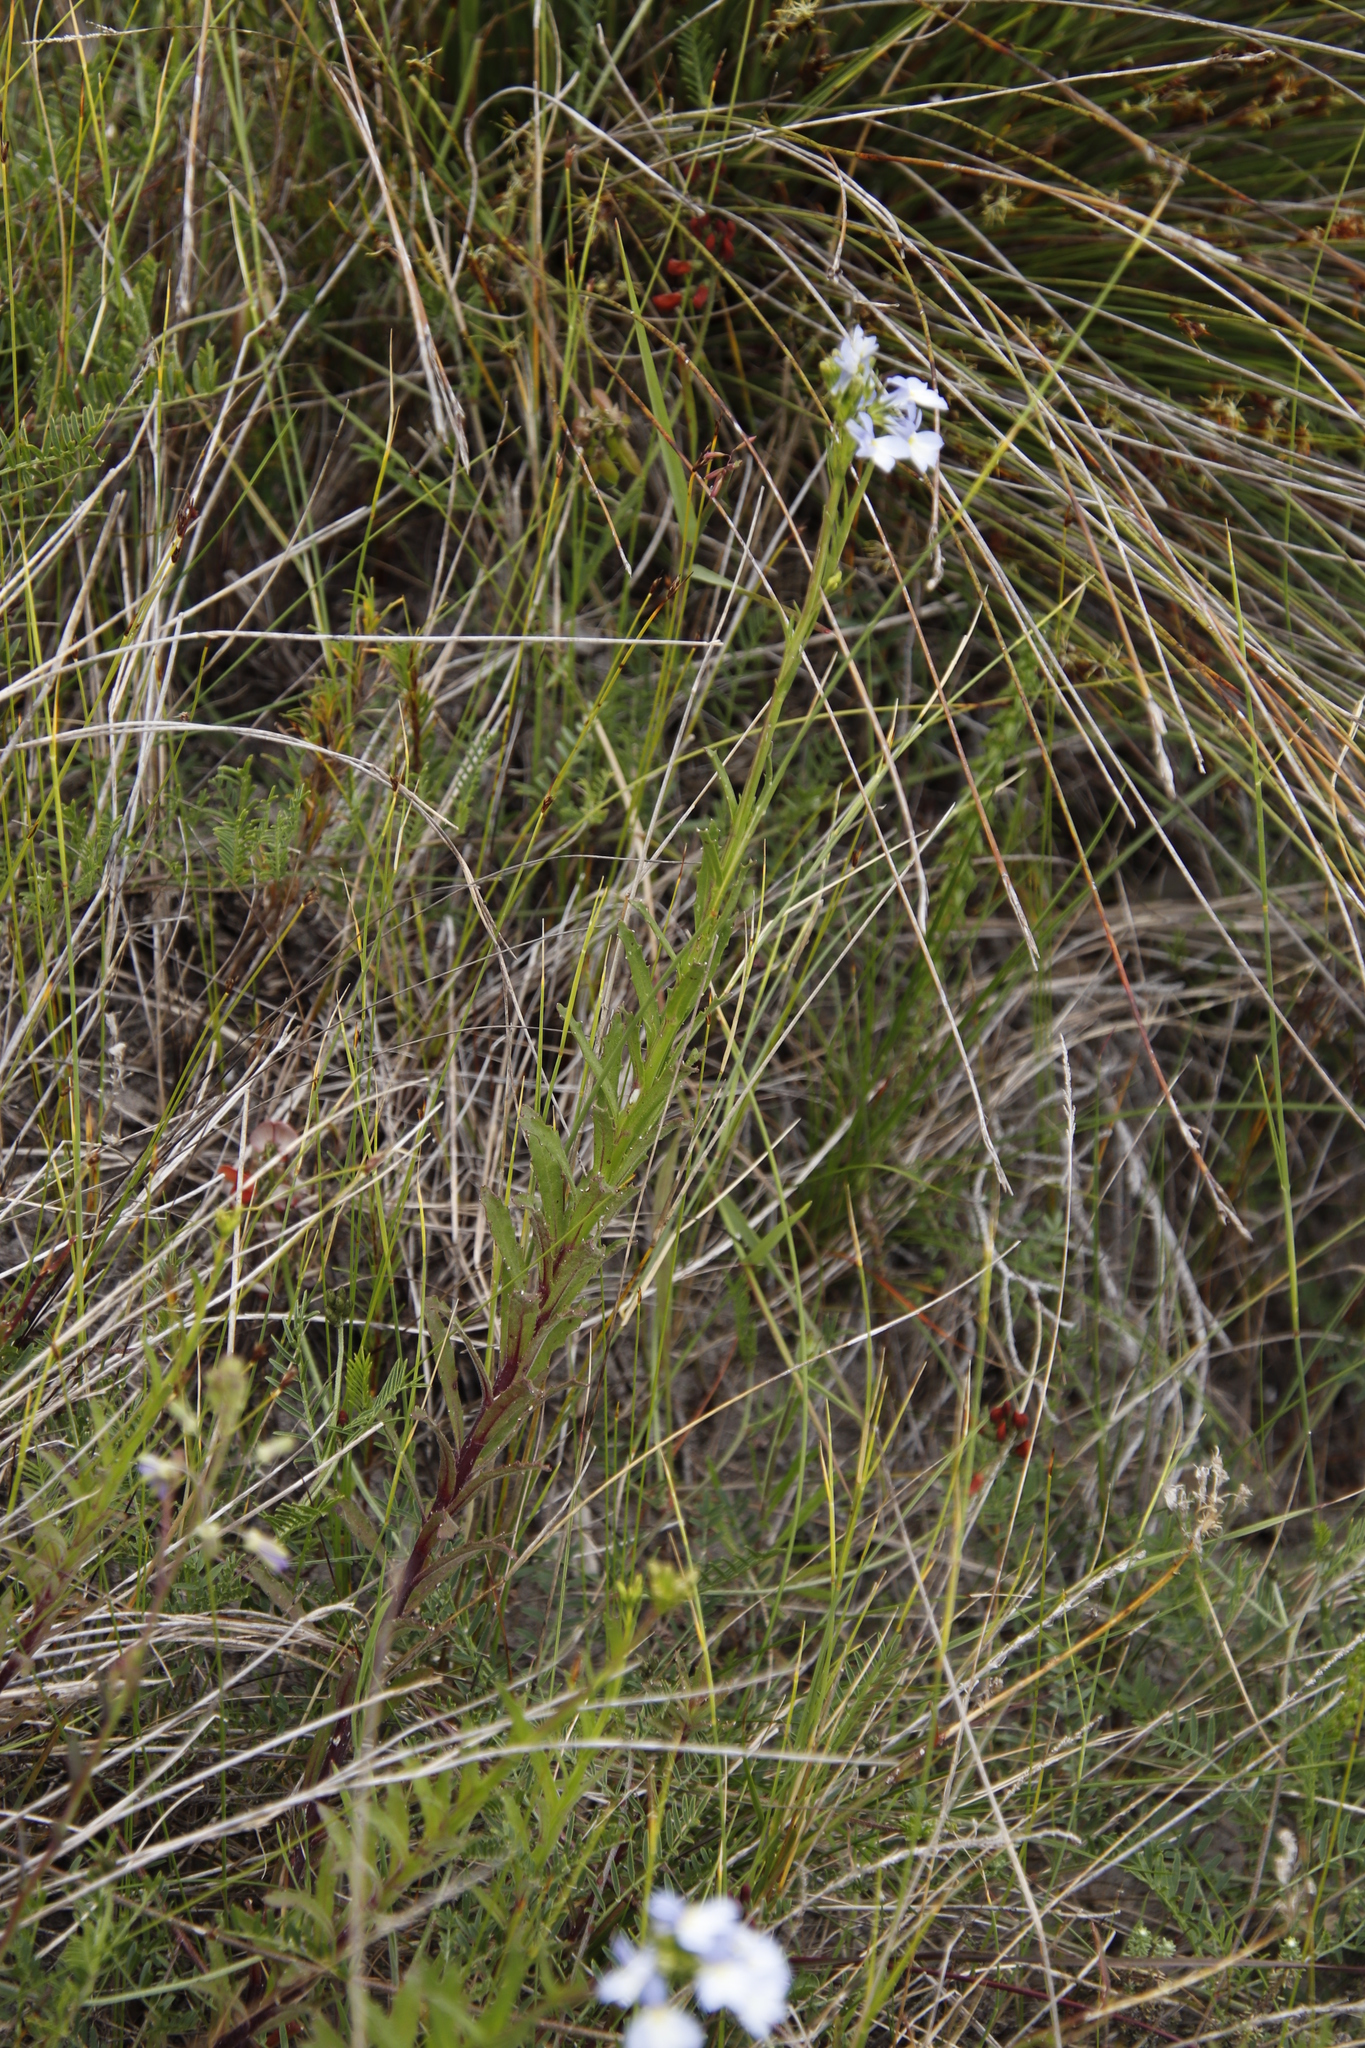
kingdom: Plantae
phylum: Tracheophyta
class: Magnoliopsida
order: Asterales
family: Campanulaceae
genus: Lobelia
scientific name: Lobelia comosa
